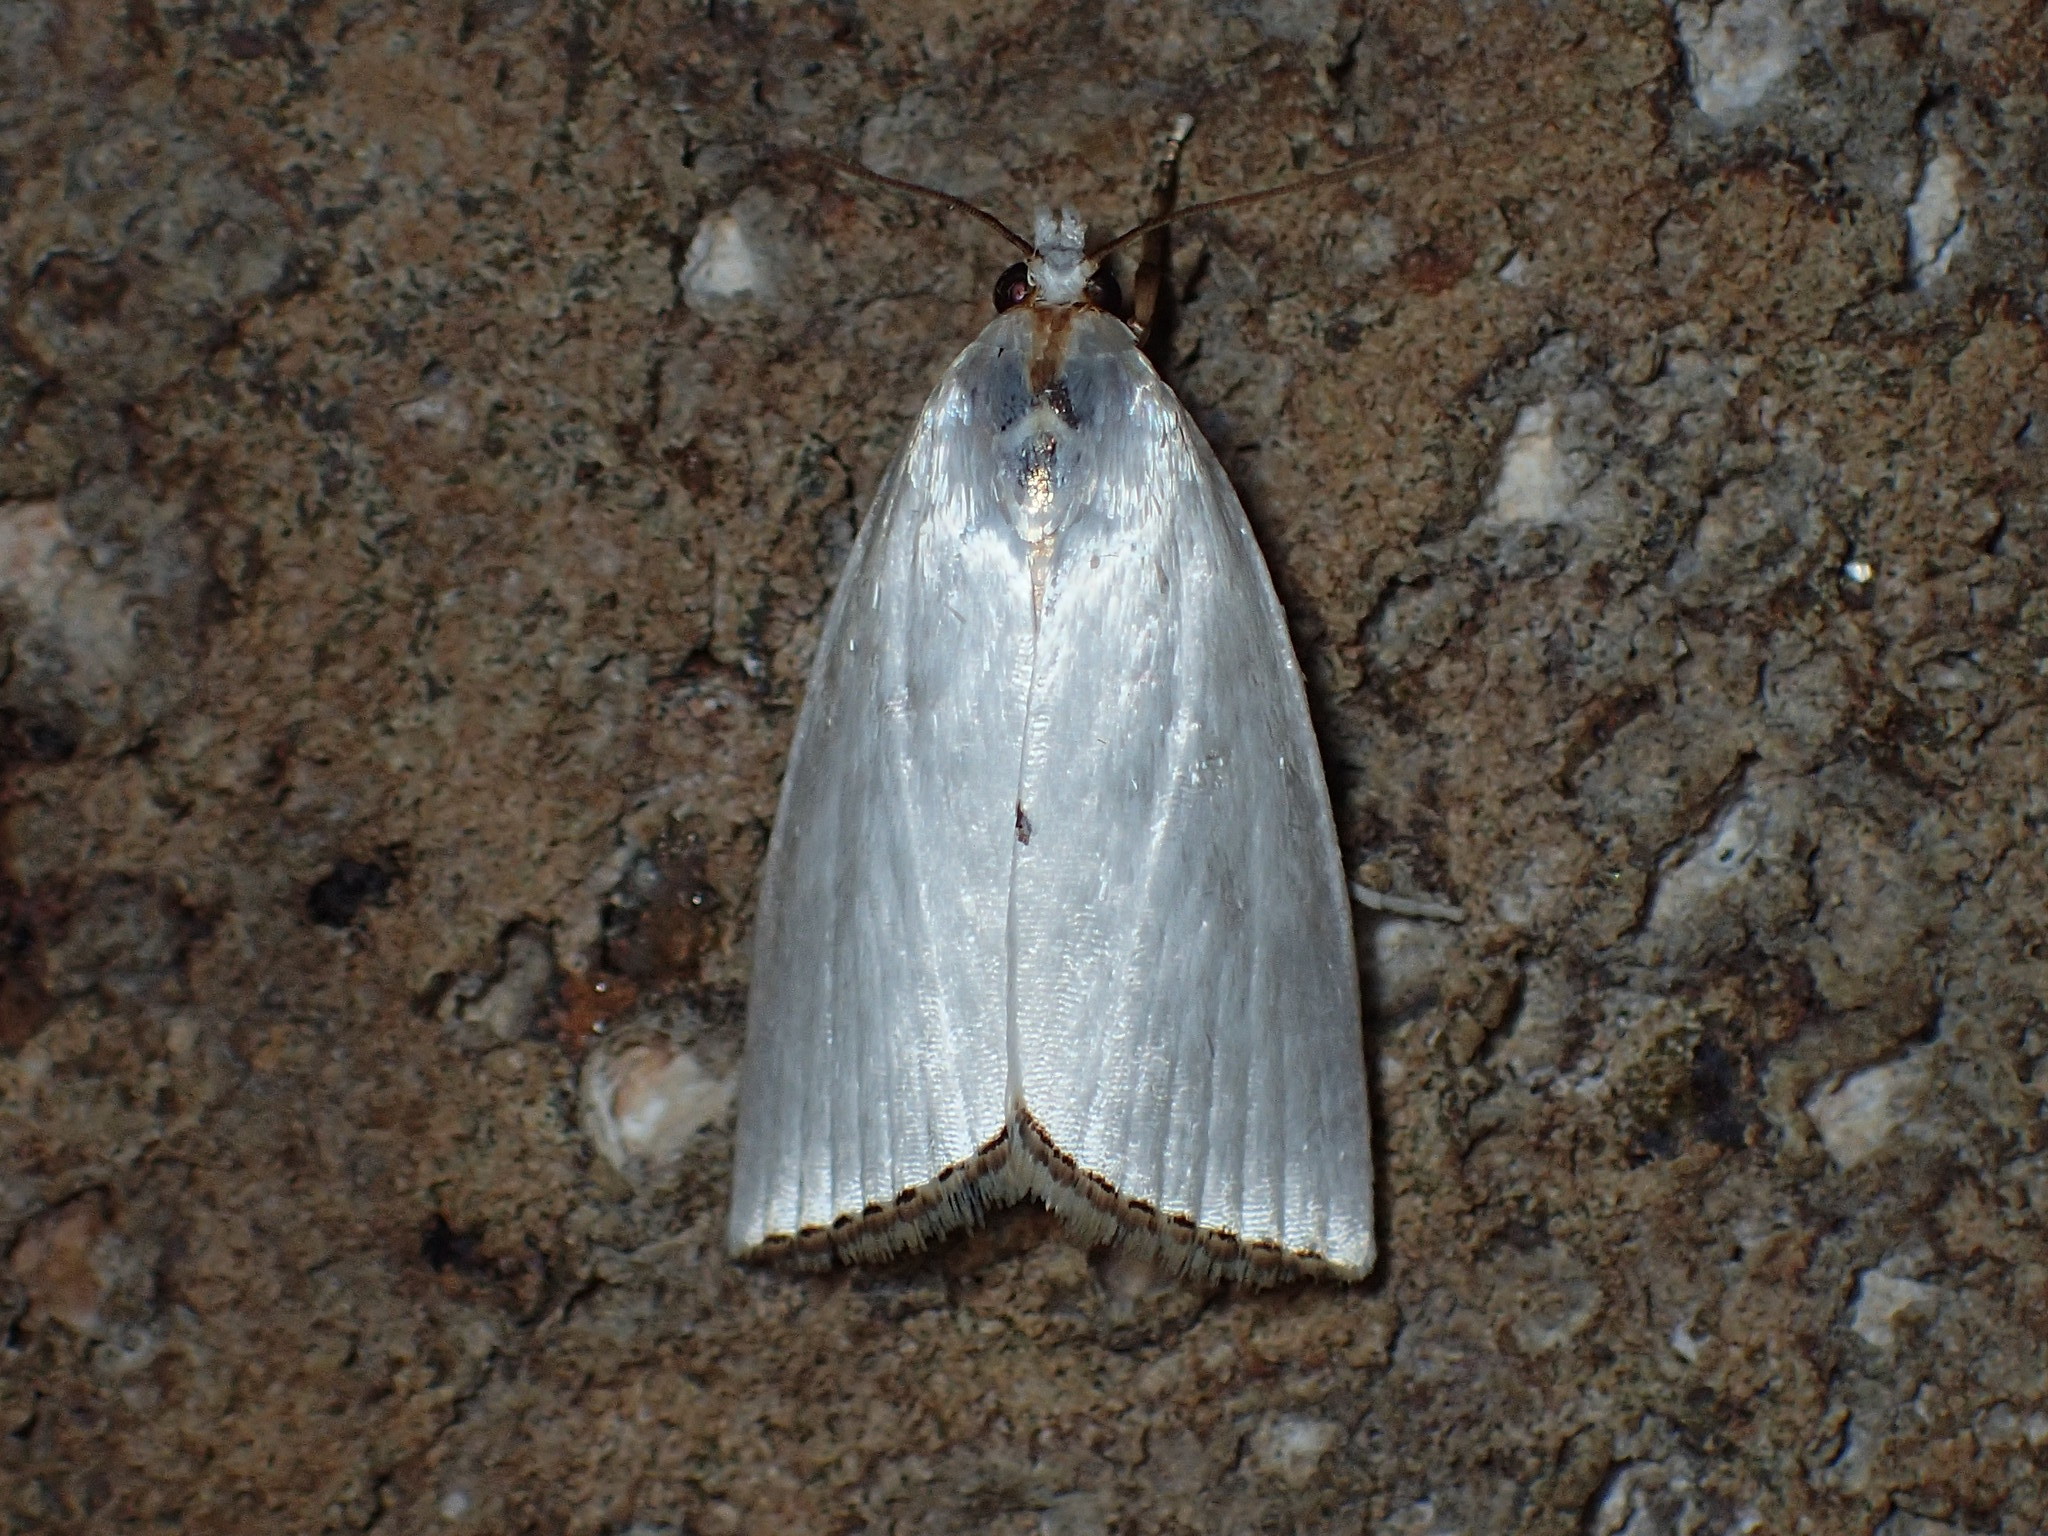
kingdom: Animalia
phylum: Arthropoda
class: Insecta
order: Lepidoptera
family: Crambidae
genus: Argyria
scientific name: Argyria nivalis
